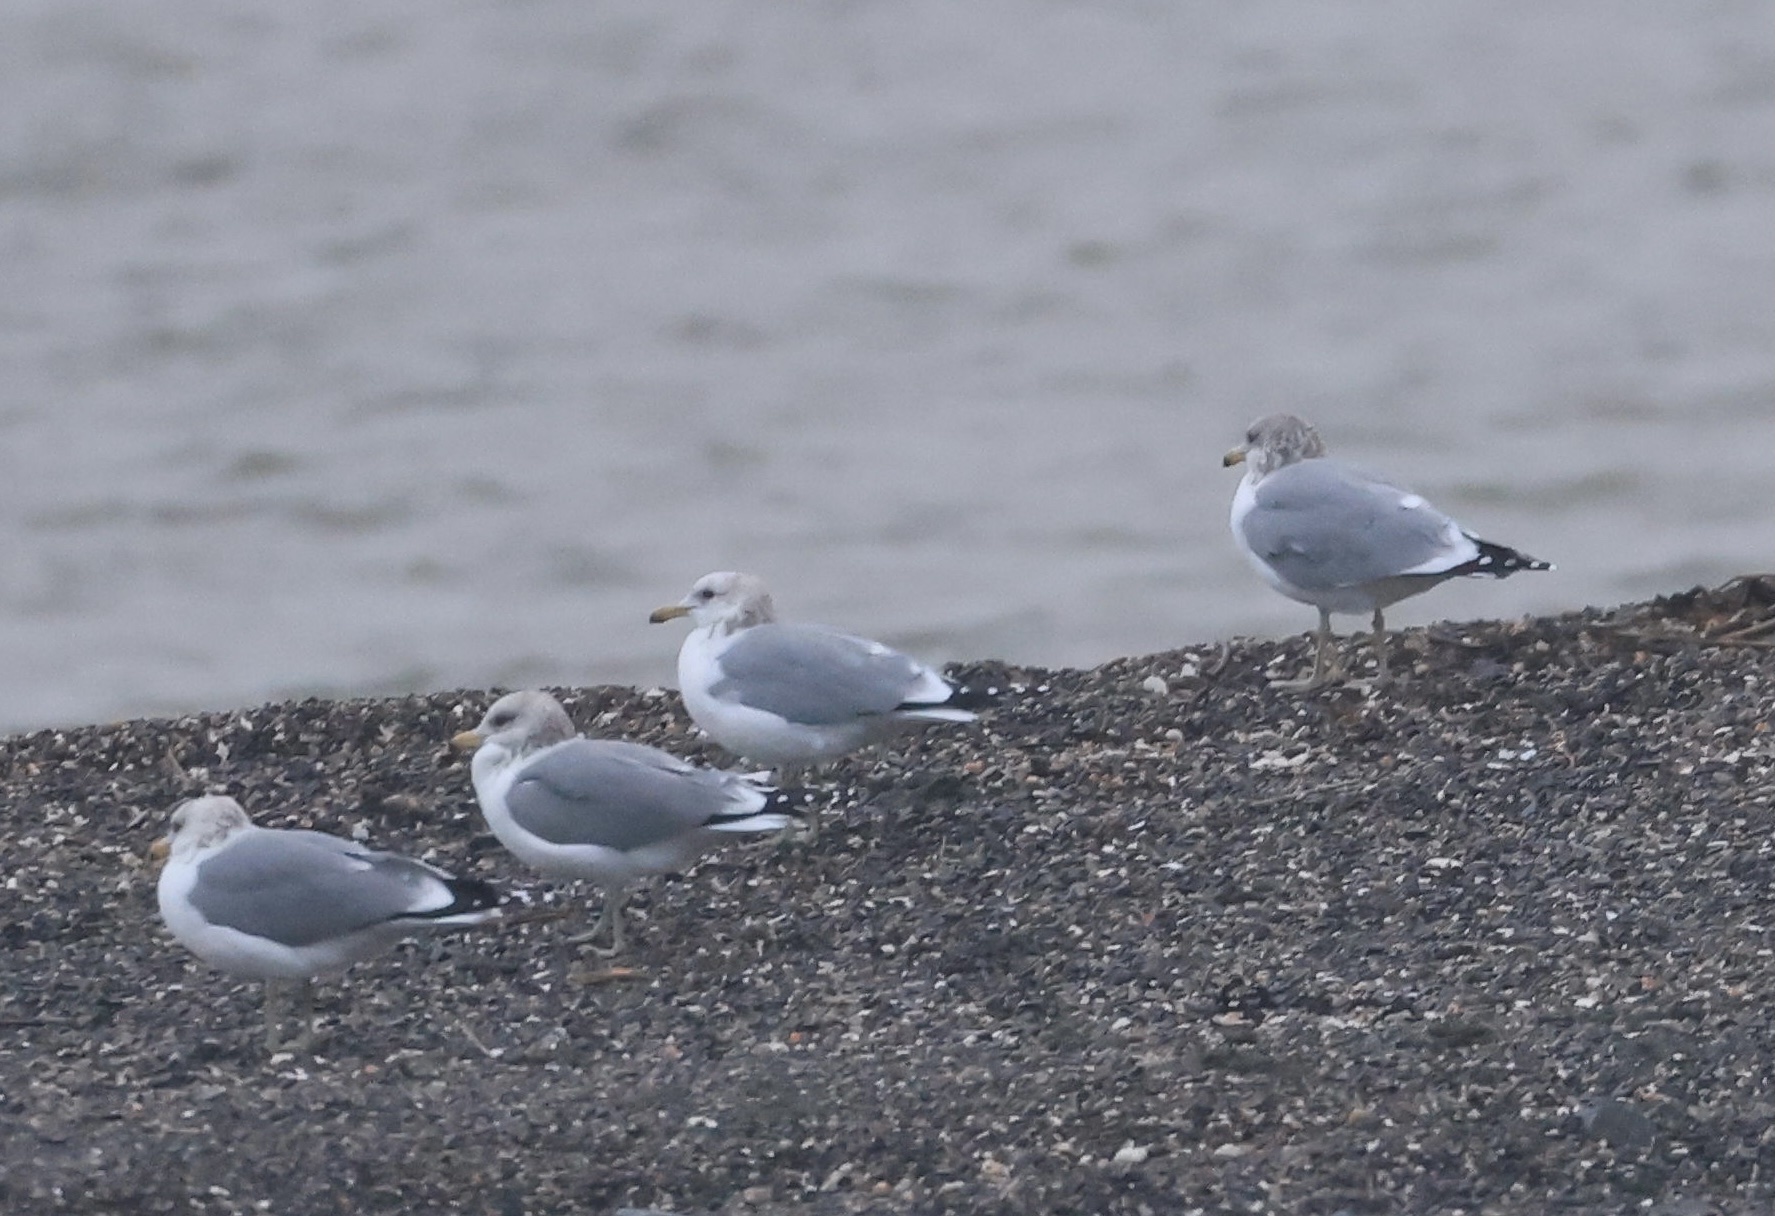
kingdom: Animalia
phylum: Chordata
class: Aves
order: Charadriiformes
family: Laridae
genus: Larus
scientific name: Larus californicus
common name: California gull
